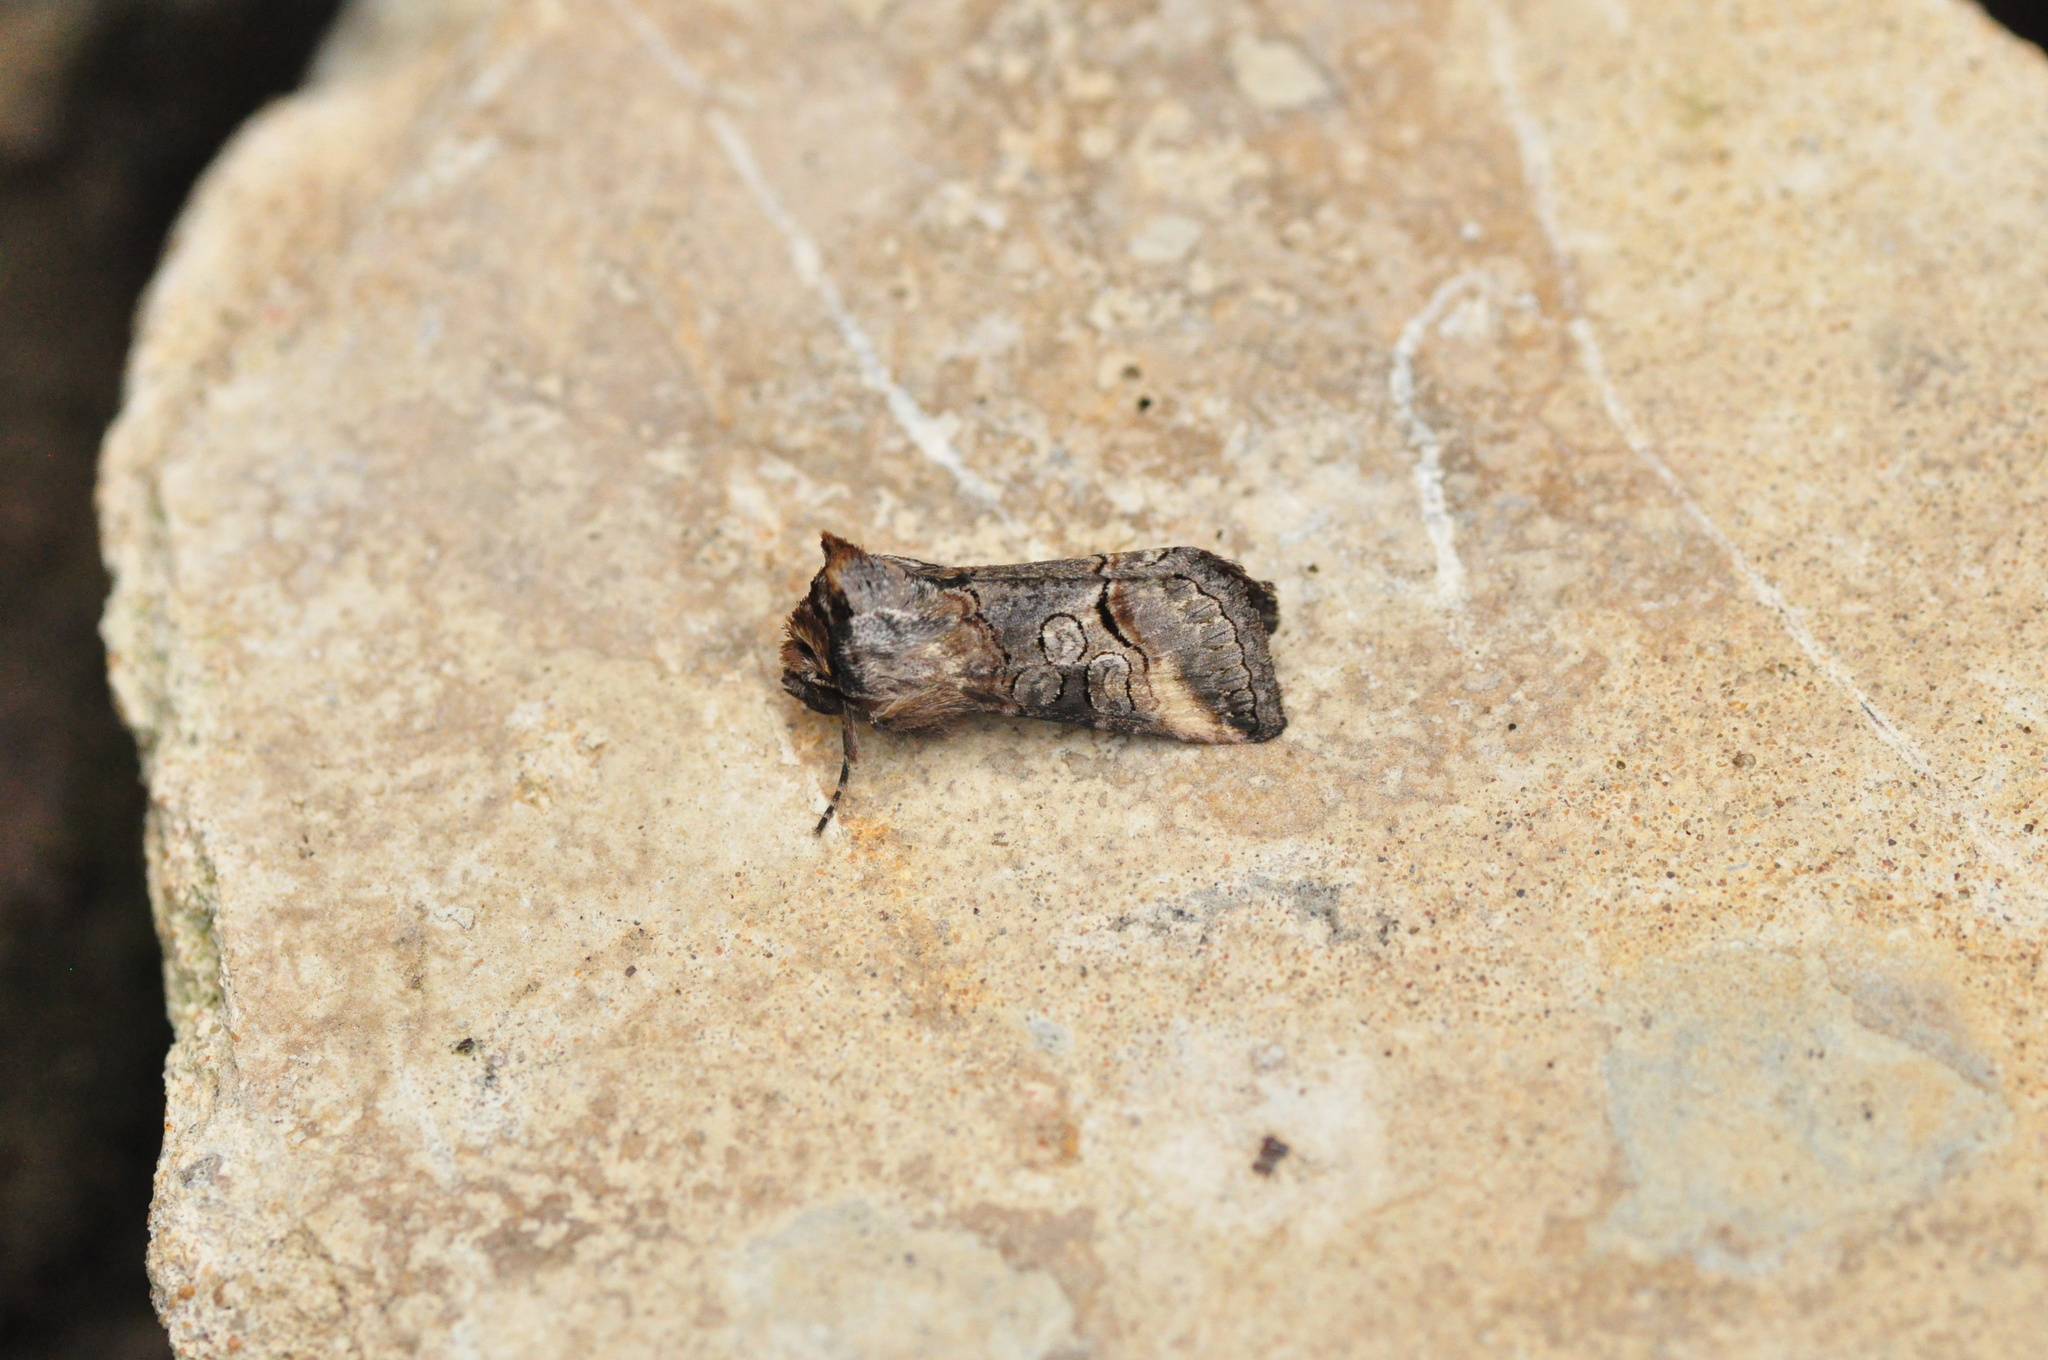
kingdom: Animalia
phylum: Arthropoda
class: Insecta
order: Lepidoptera
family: Noctuidae
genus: Abrostola
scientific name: Abrostola canariensis
